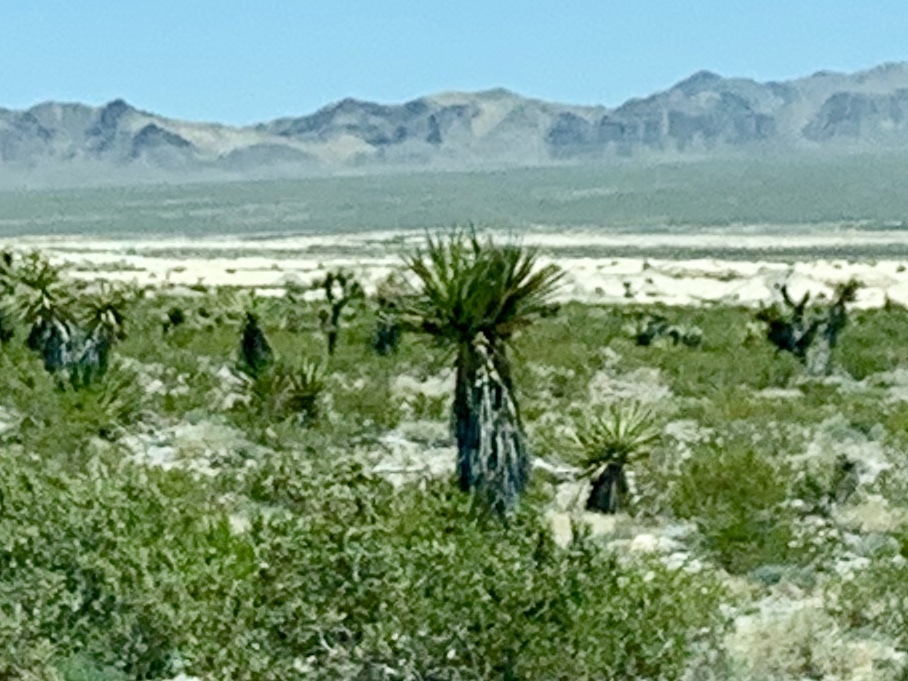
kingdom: Plantae
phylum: Tracheophyta
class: Liliopsida
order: Asparagales
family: Asparagaceae
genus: Yucca
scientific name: Yucca schidigera
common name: Mojave yucca
